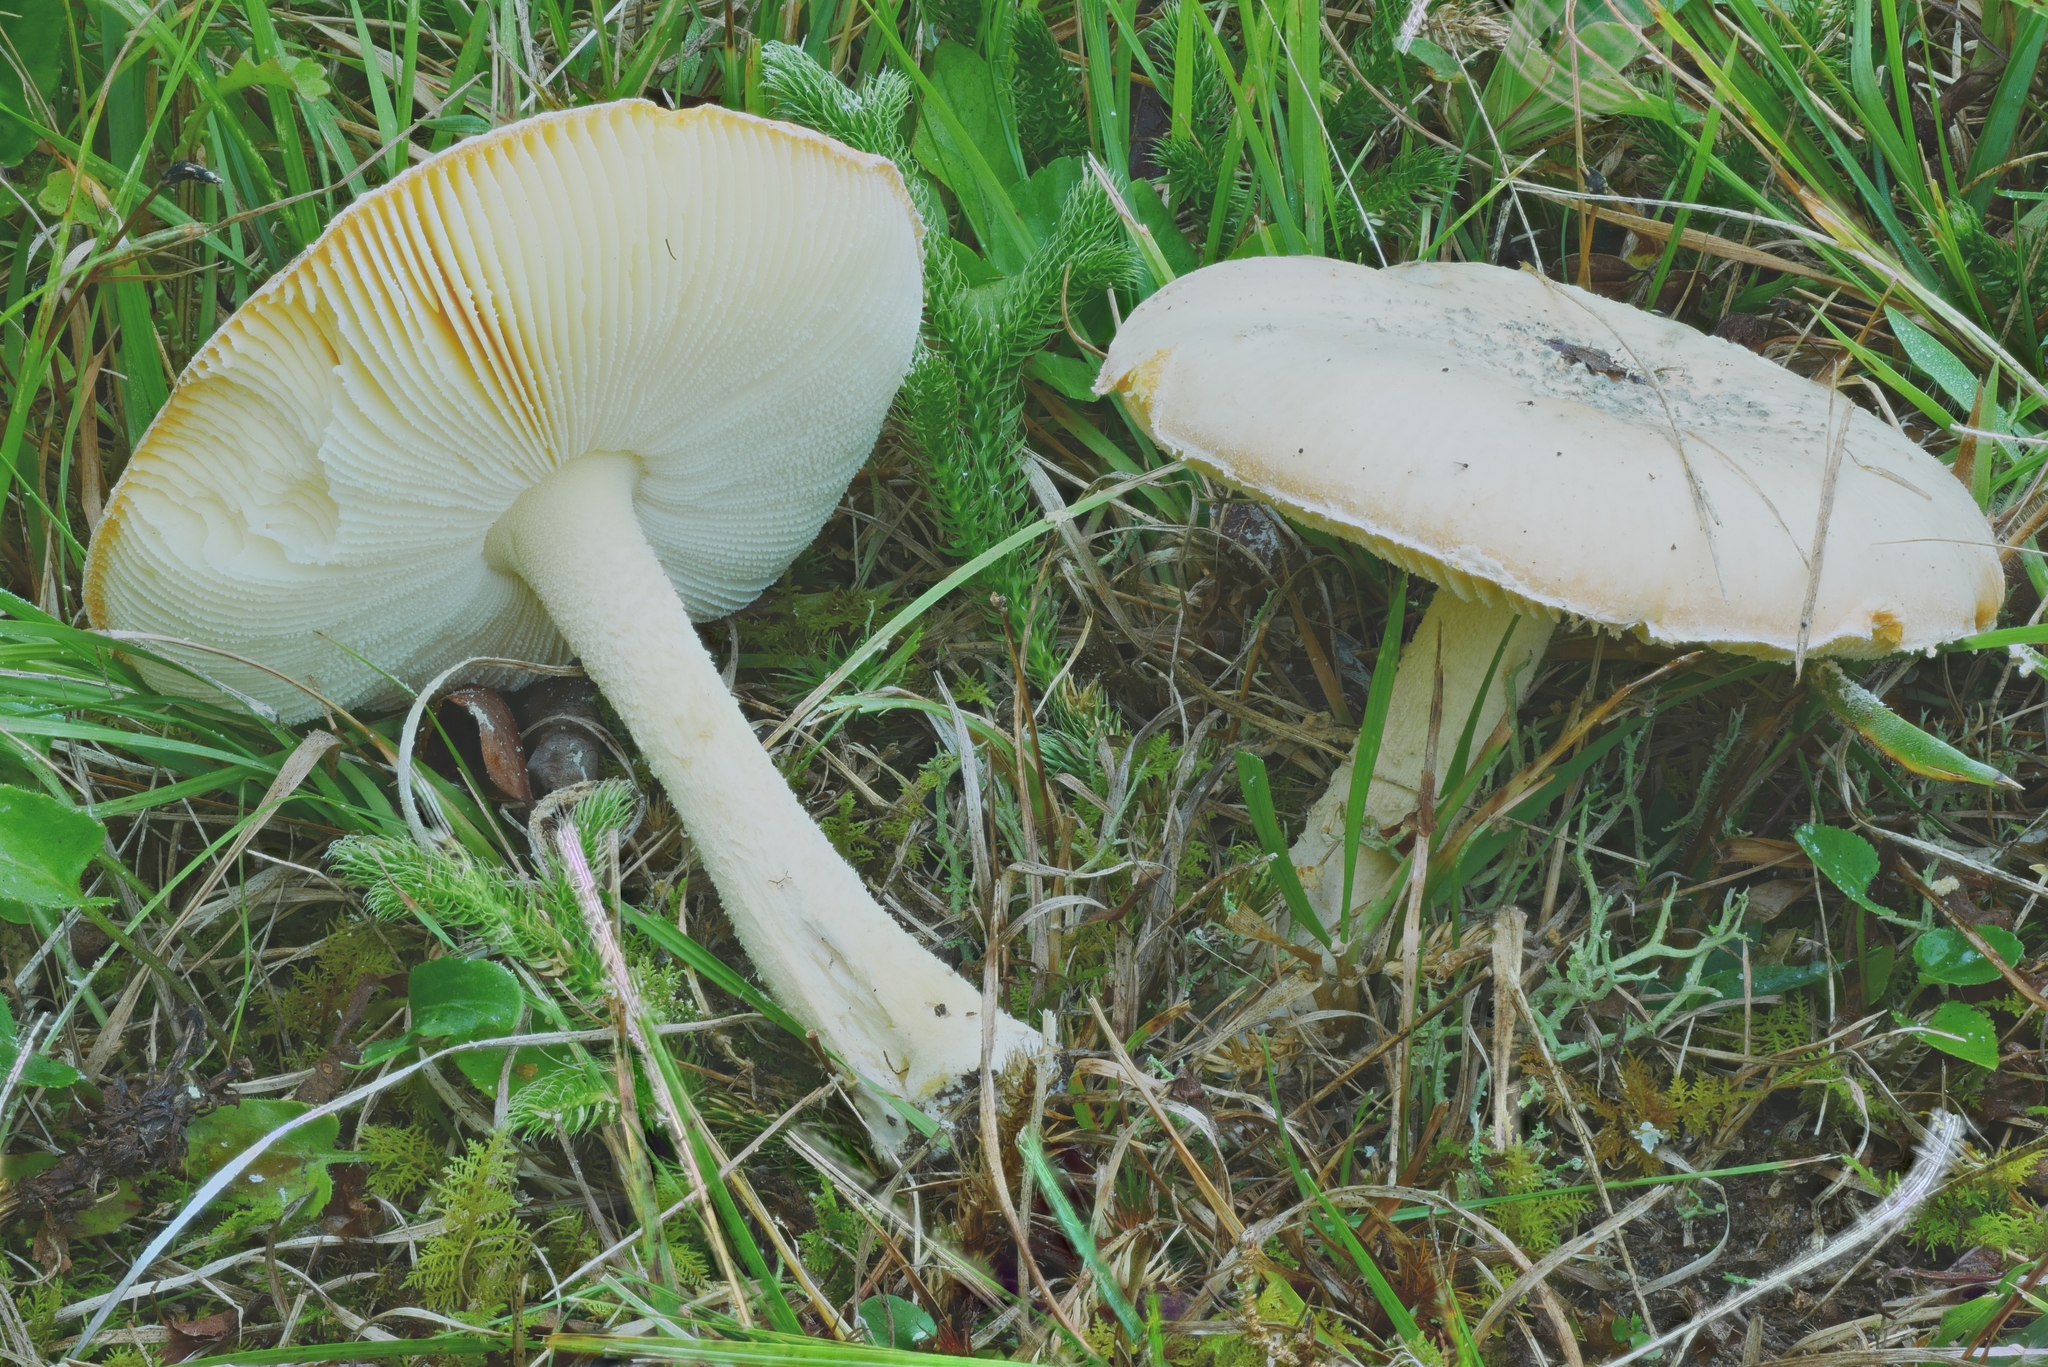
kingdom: Fungi
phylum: Basidiomycota
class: Agaricomycetes
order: Agaricales
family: Amanitaceae
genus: Amanita
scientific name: Amanita wellsii
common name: Salmon amanita
